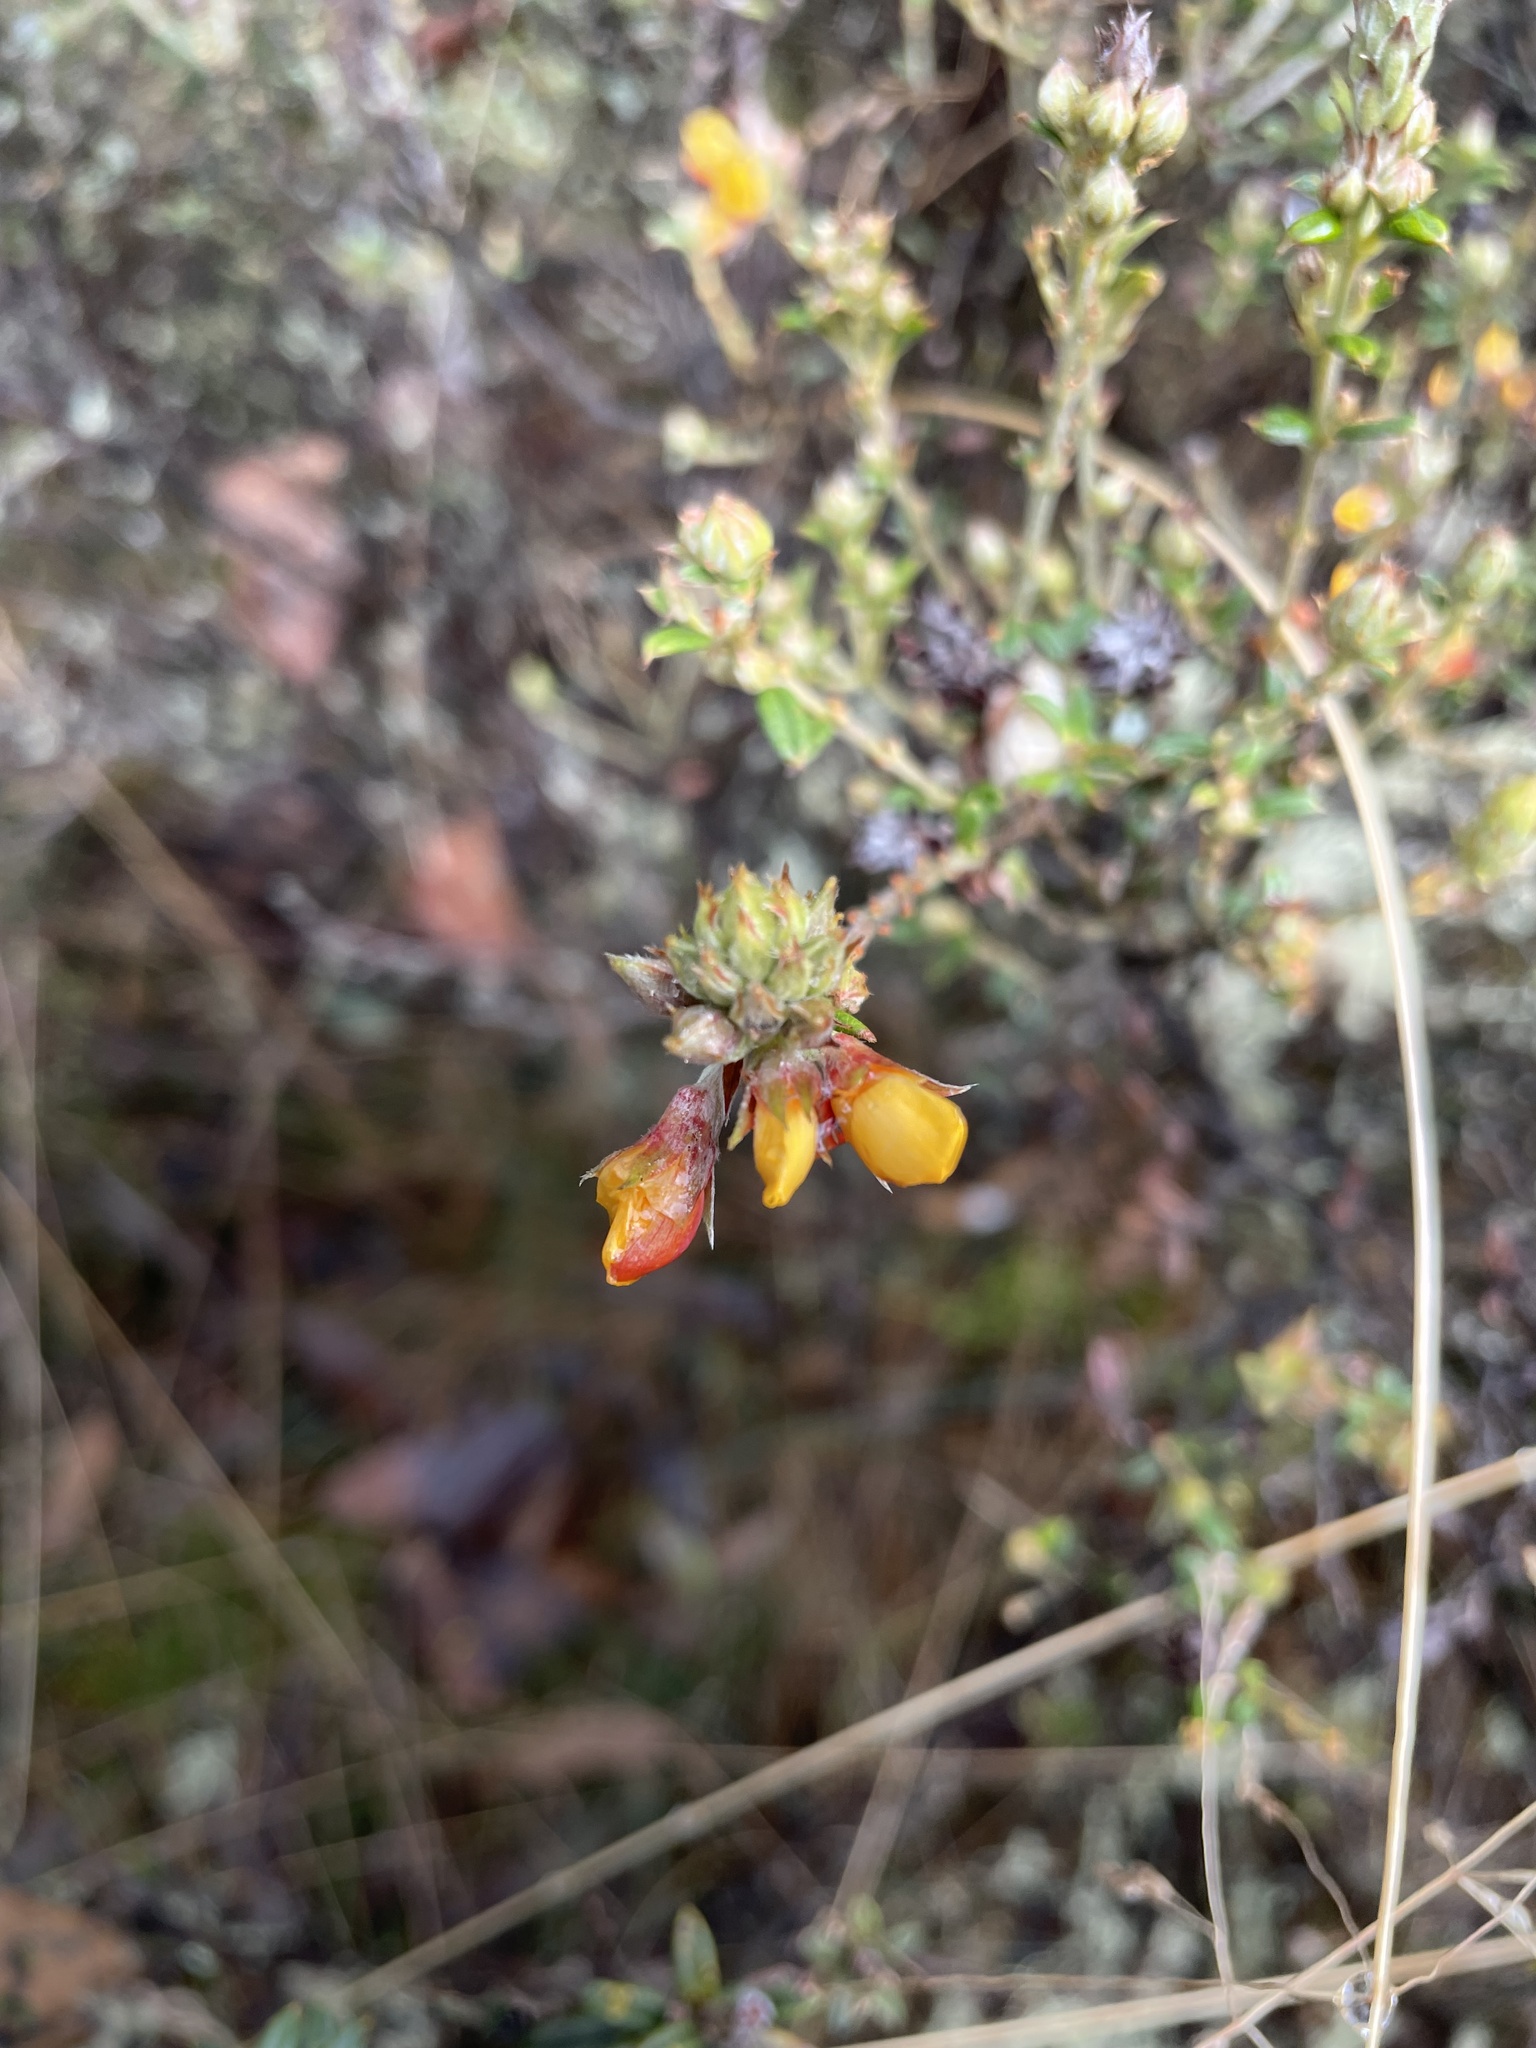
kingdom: Plantae
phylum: Tracheophyta
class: Magnoliopsida
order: Fabales
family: Fabaceae
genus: Oxylobium
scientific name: Oxylobium ellipticum
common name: Golden shaggy-pea
